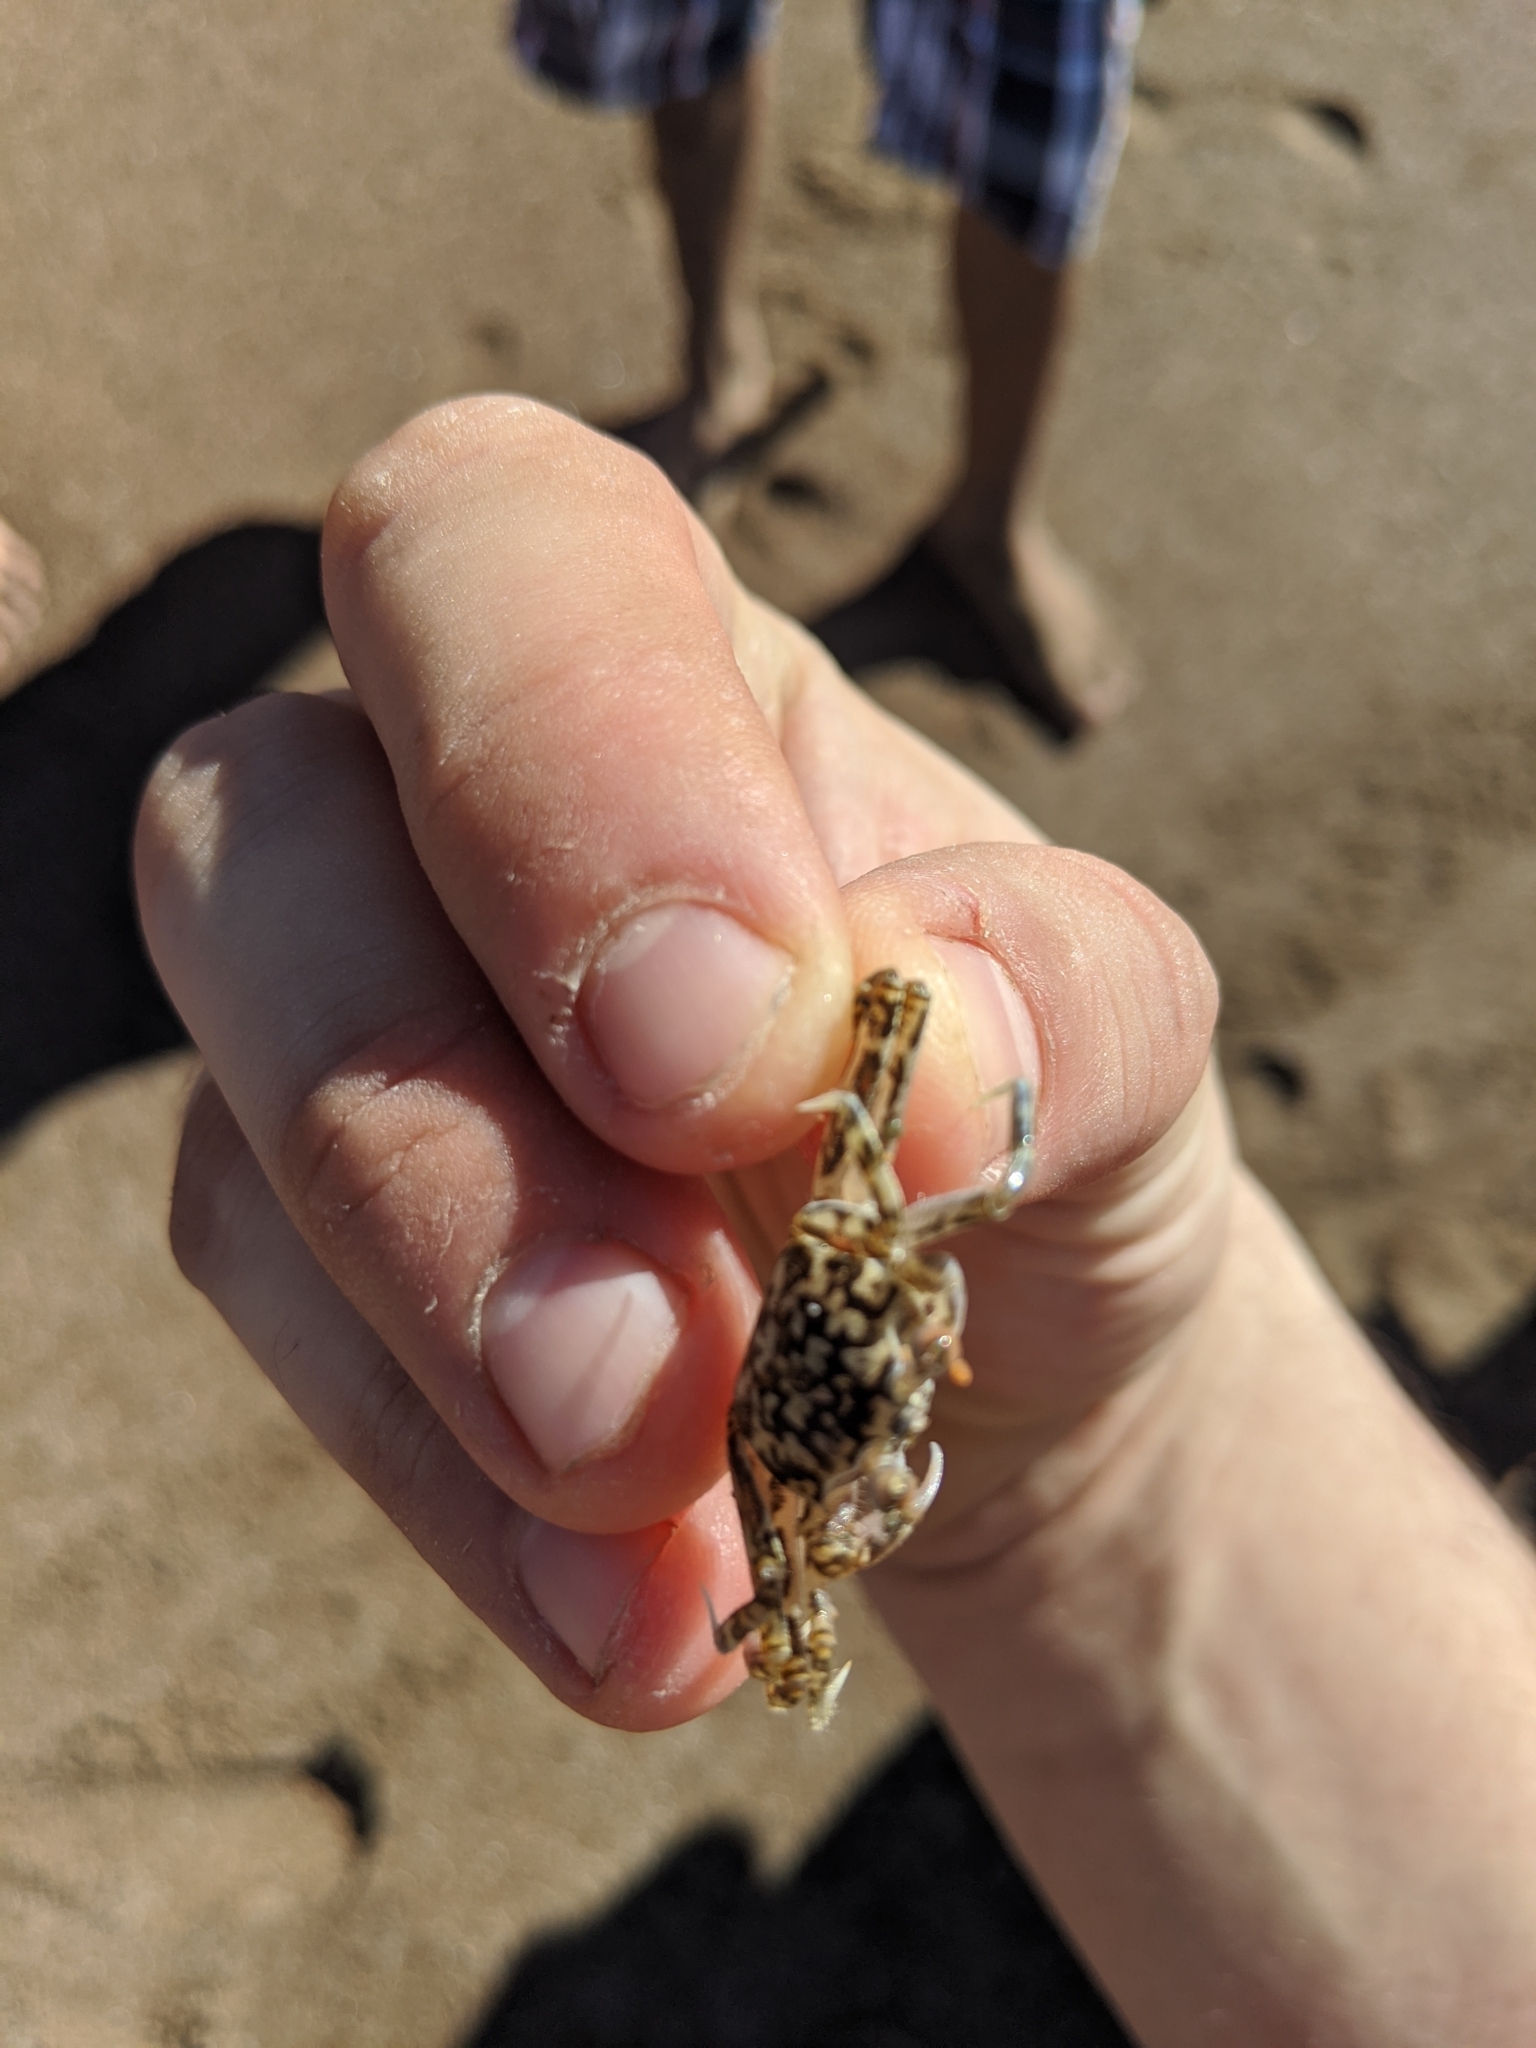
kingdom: Animalia
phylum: Arthropoda
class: Malacostraca
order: Decapoda
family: Ocypodidae
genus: Ocypode
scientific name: Ocypode occidentalis
